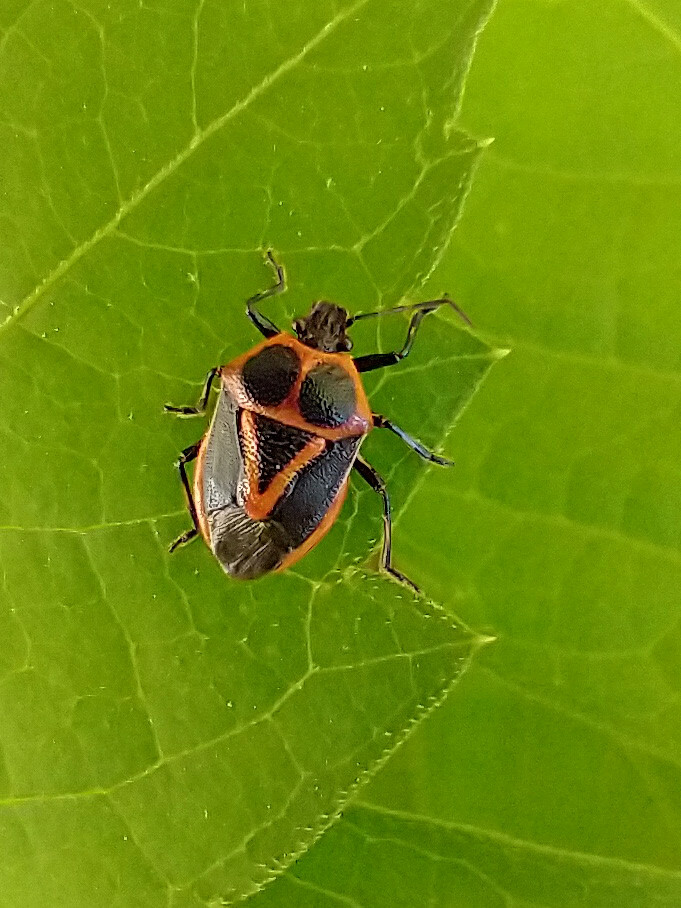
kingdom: Animalia
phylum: Arthropoda
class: Insecta
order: Hemiptera
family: Pentatomidae
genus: Perillus
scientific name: Perillus strigipes
